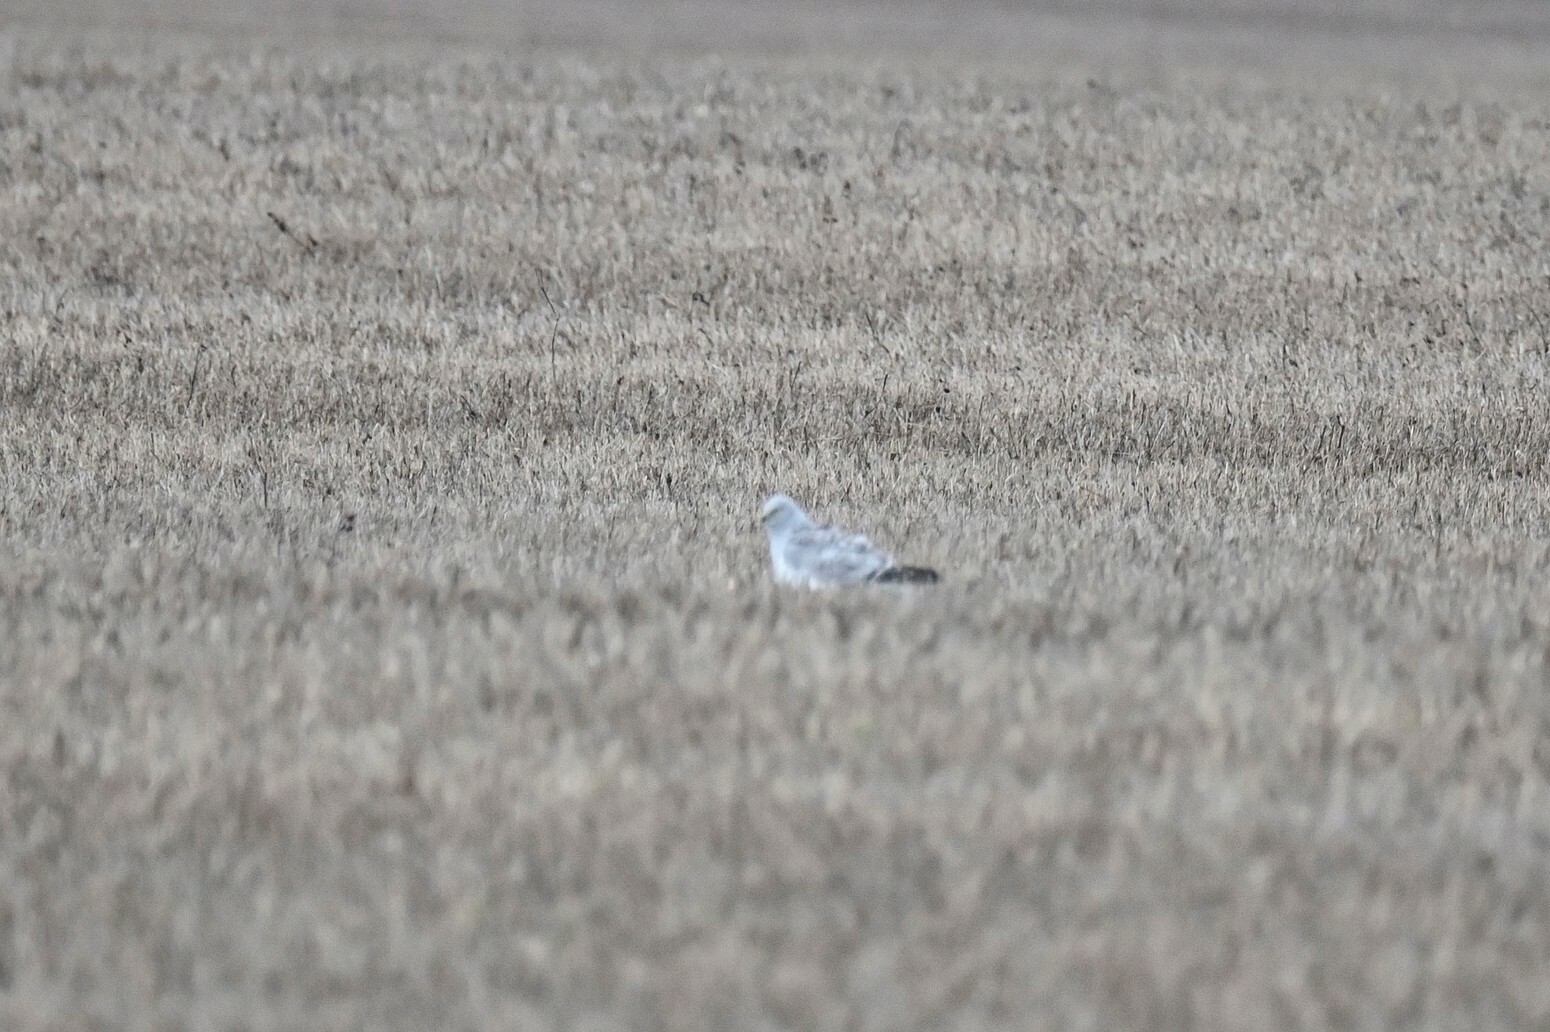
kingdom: Animalia
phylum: Chordata
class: Aves
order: Accipitriformes
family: Accipitridae
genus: Circus
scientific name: Circus cyaneus
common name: Hen harrier
